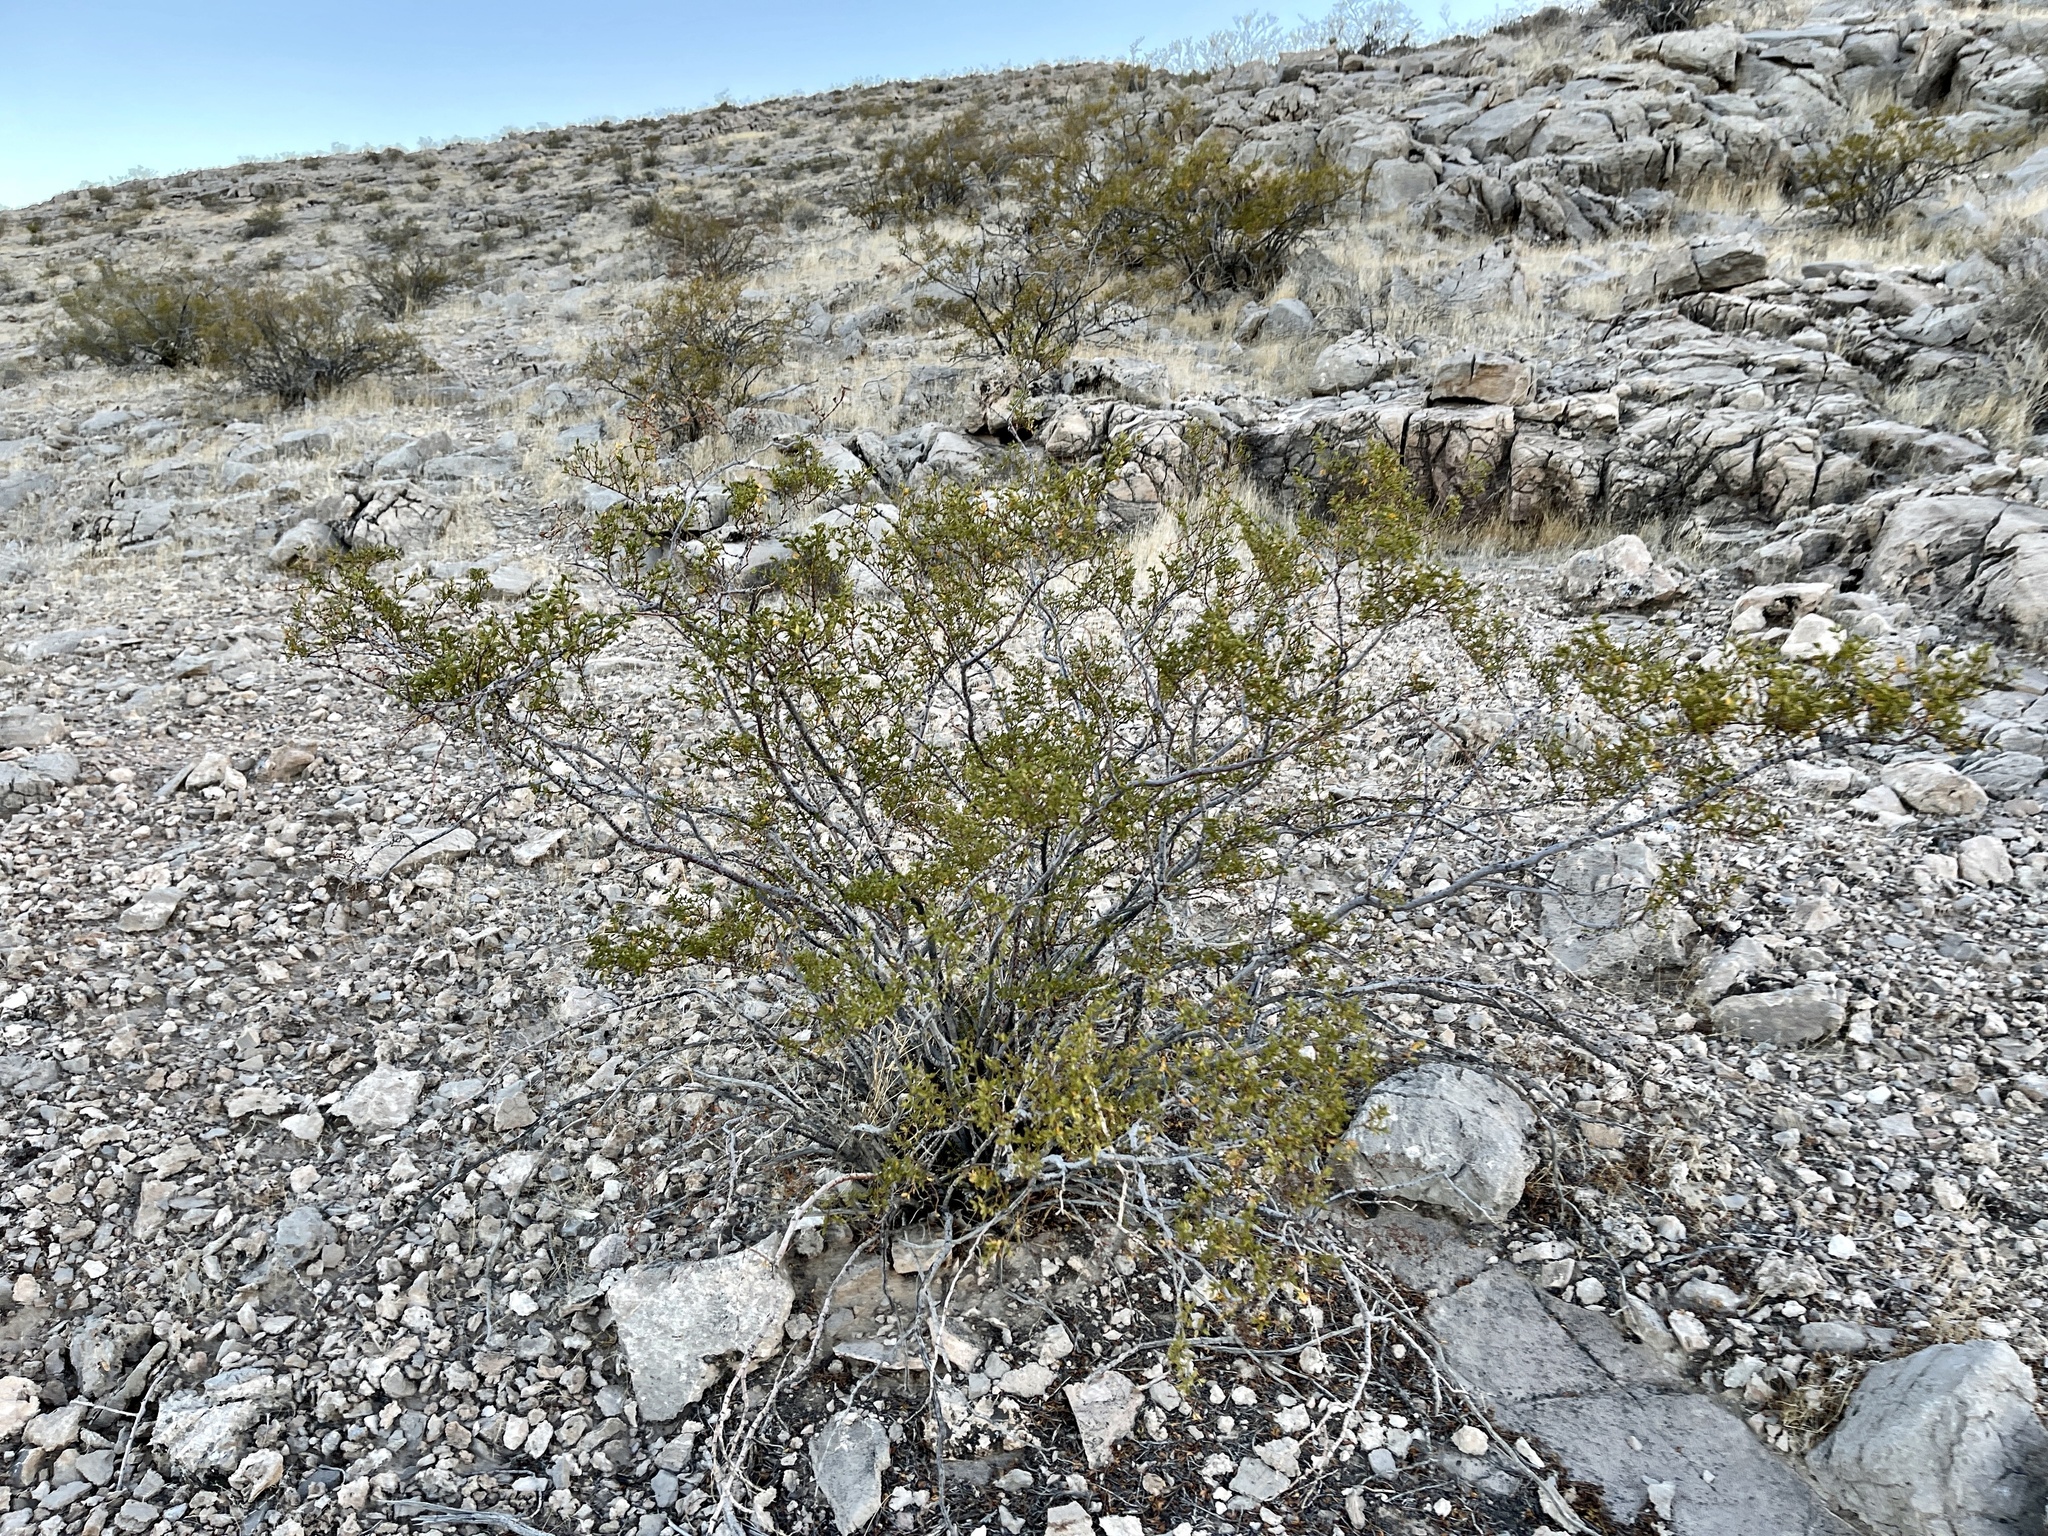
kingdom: Plantae
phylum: Tracheophyta
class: Magnoliopsida
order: Zygophyllales
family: Zygophyllaceae
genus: Larrea
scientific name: Larrea tridentata
